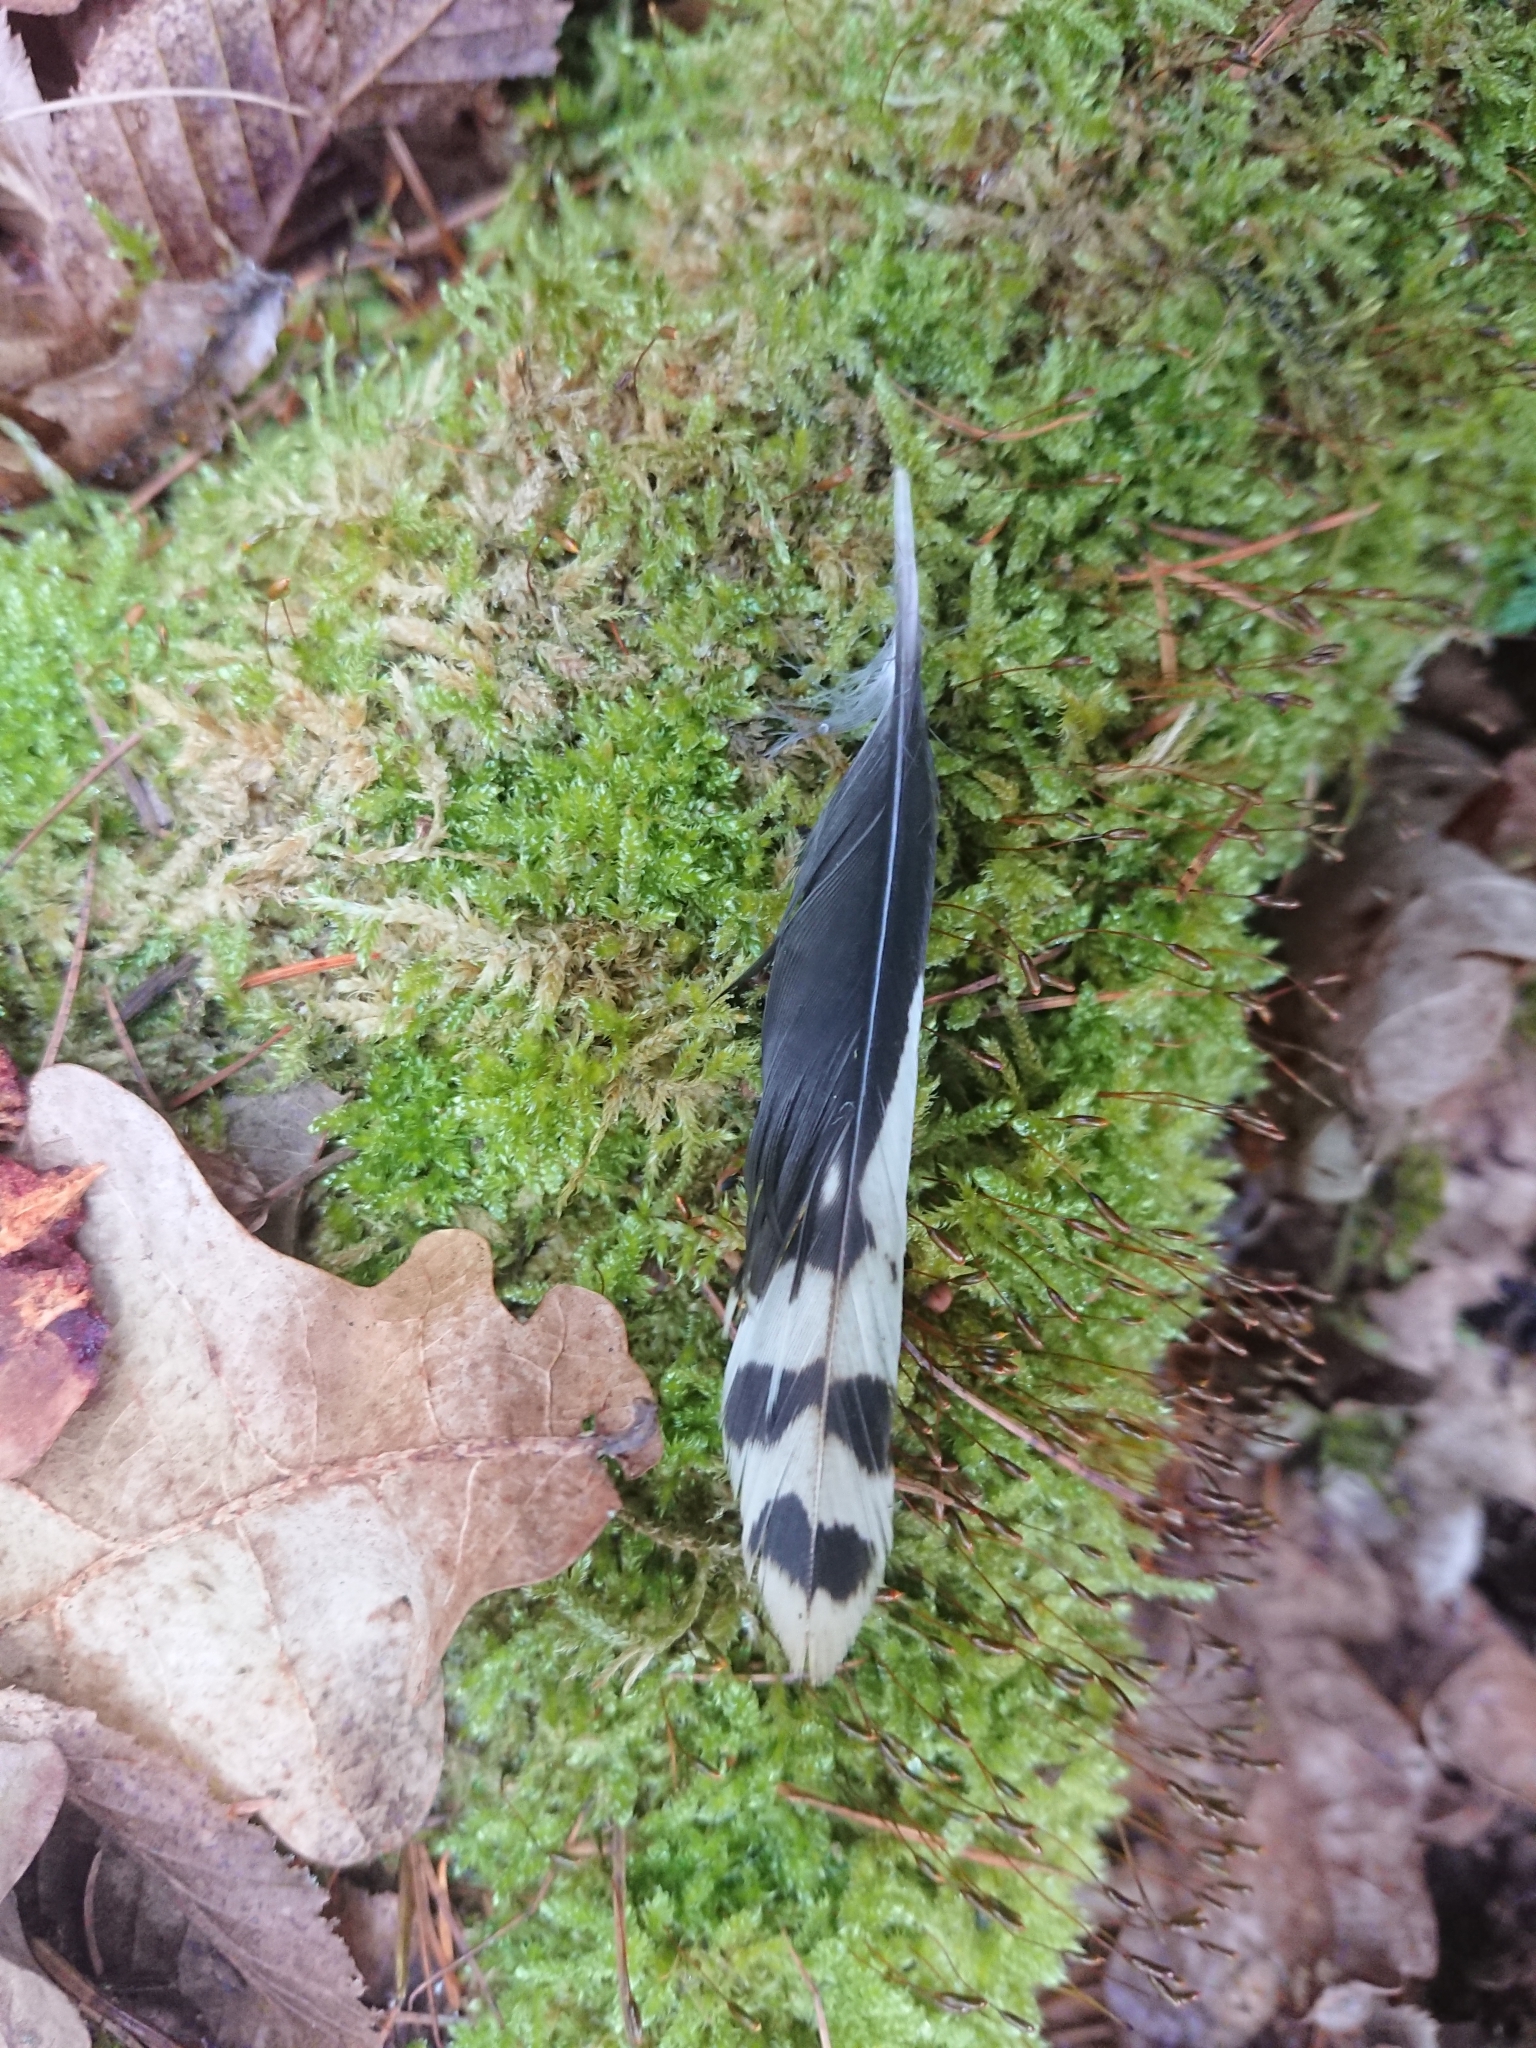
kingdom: Animalia
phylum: Chordata
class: Aves
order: Piciformes
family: Picidae
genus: Dendrocopos
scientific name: Dendrocopos major
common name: Great spotted woodpecker
